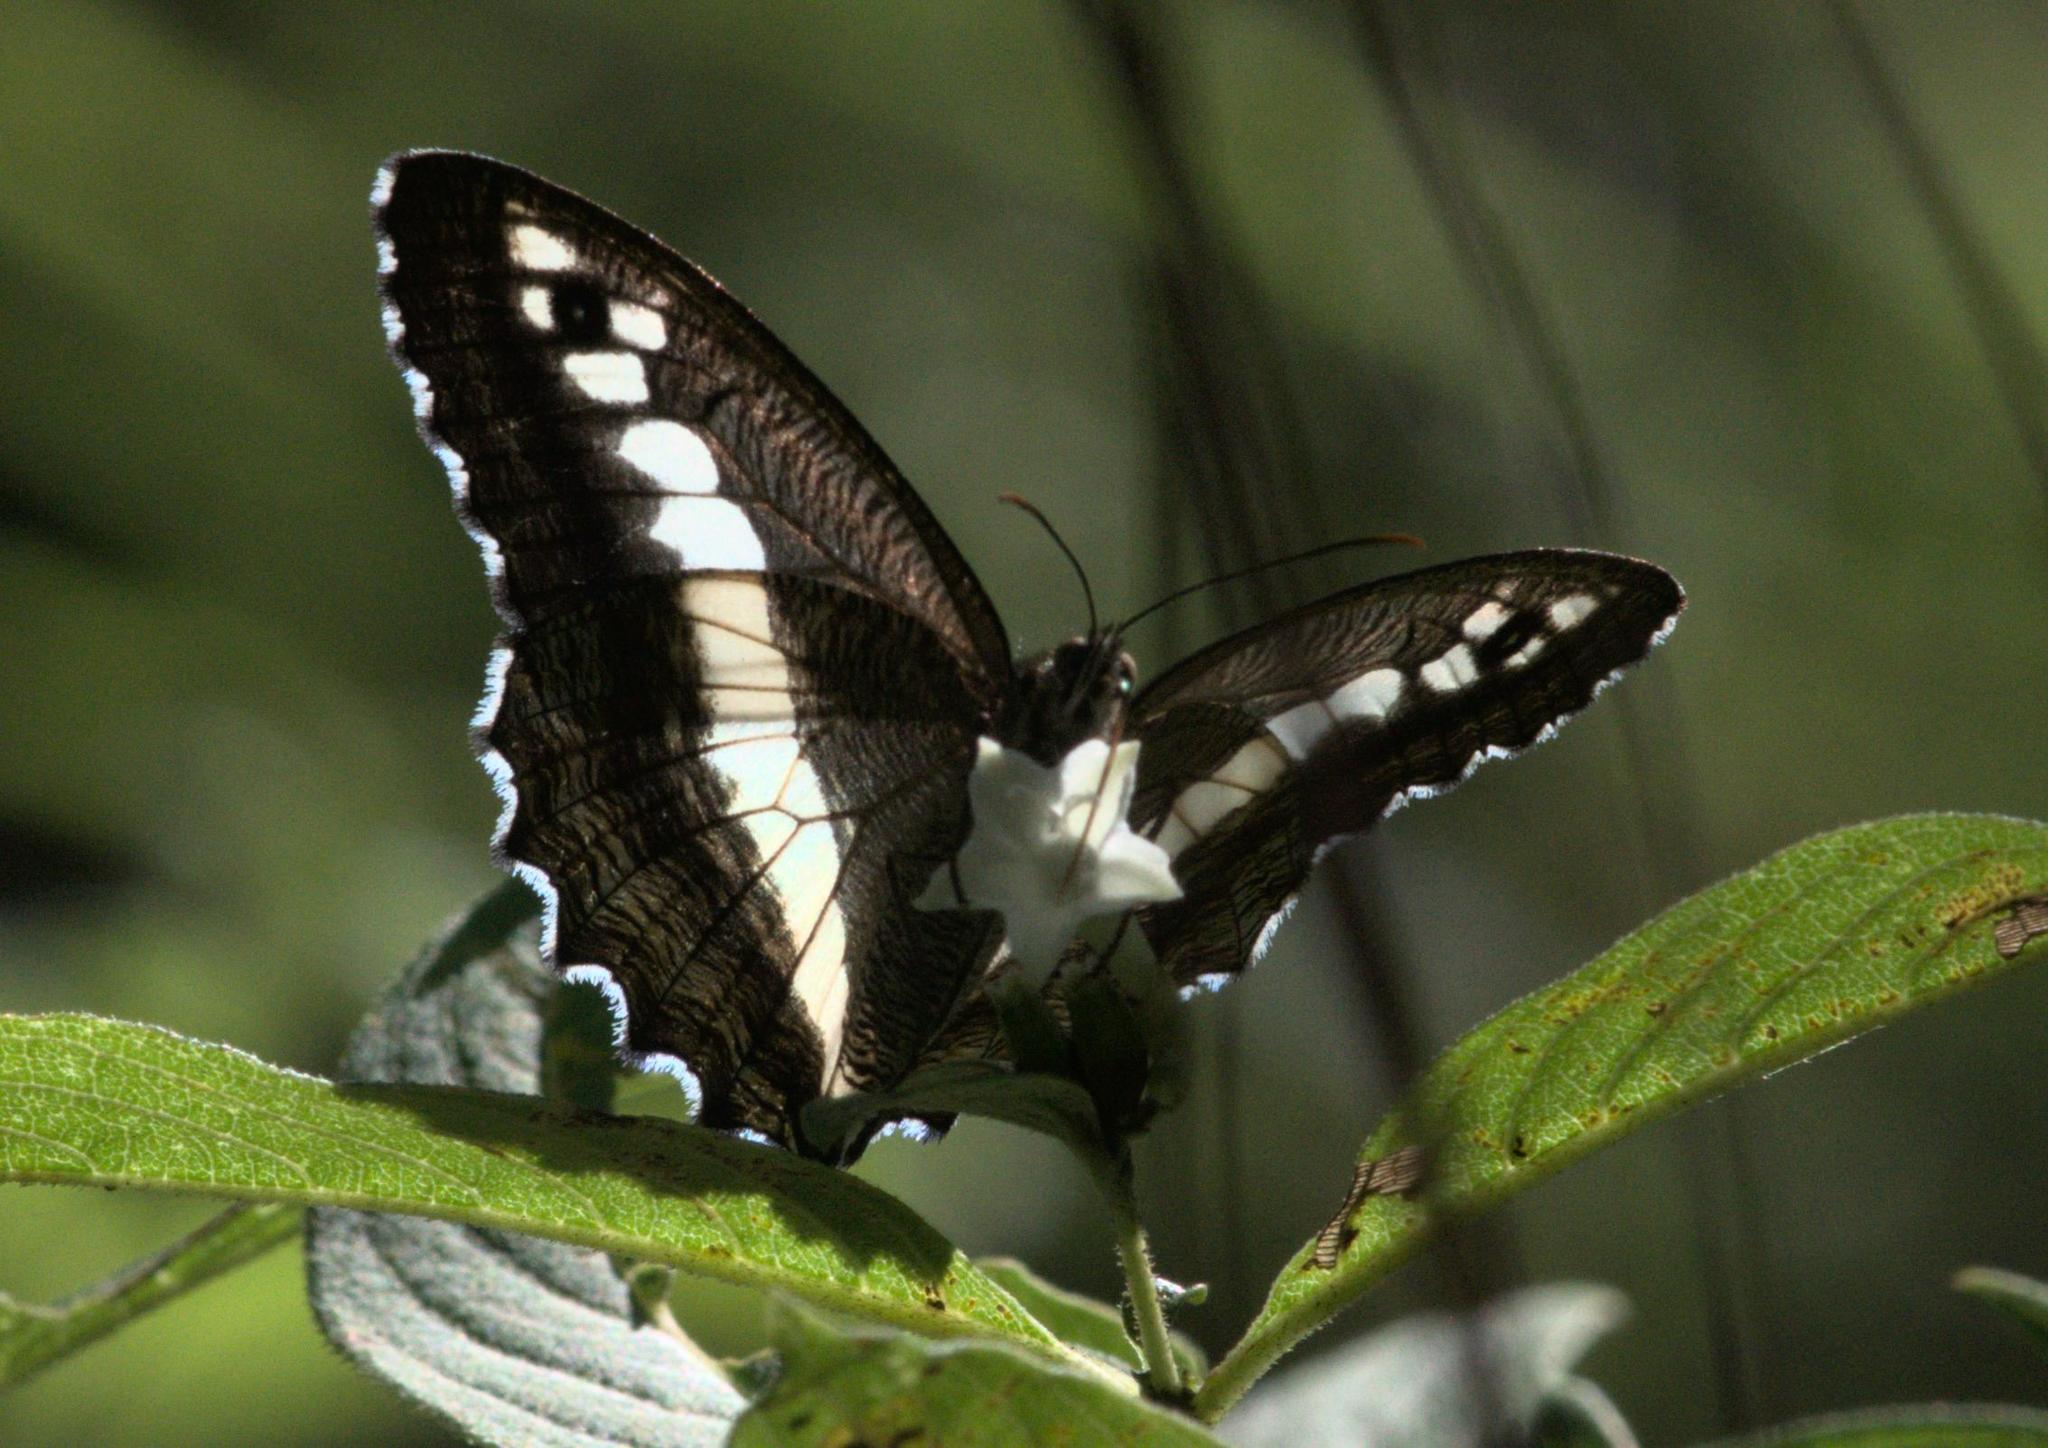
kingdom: Animalia
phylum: Arthropoda
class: Insecta
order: Lepidoptera
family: Nymphalidae
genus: Satyrus
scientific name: Satyrus
